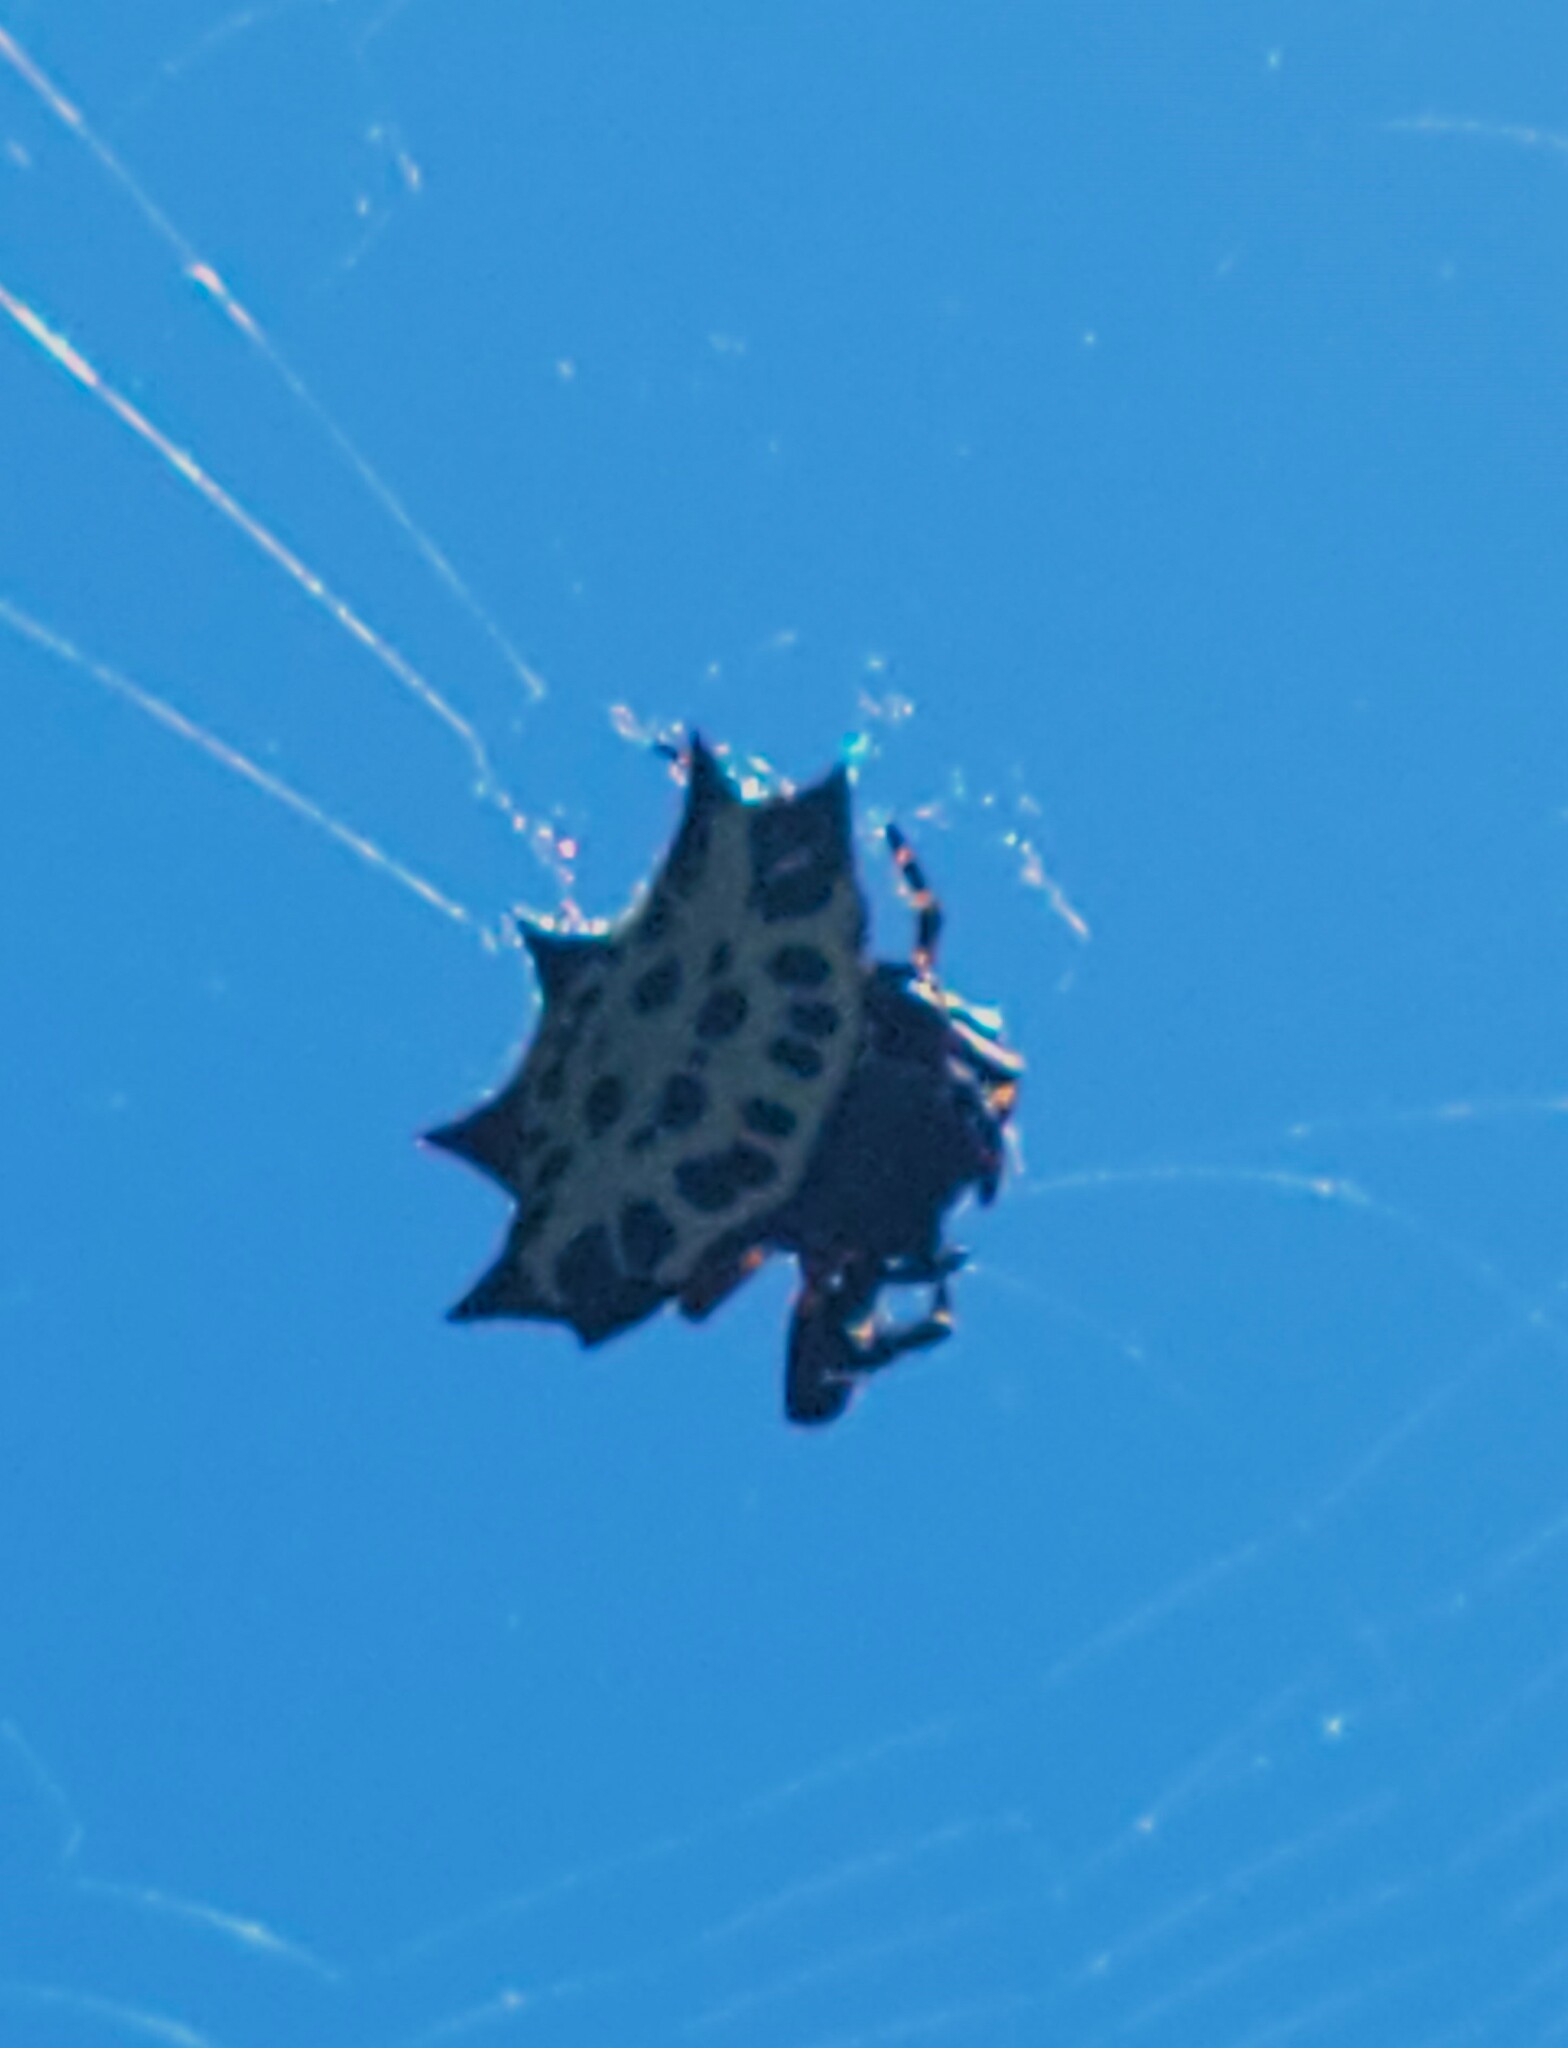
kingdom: Animalia
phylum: Arthropoda
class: Arachnida
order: Araneae
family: Araneidae
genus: Gasteracantha
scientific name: Gasteracantha cancriformis
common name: Orb weavers
